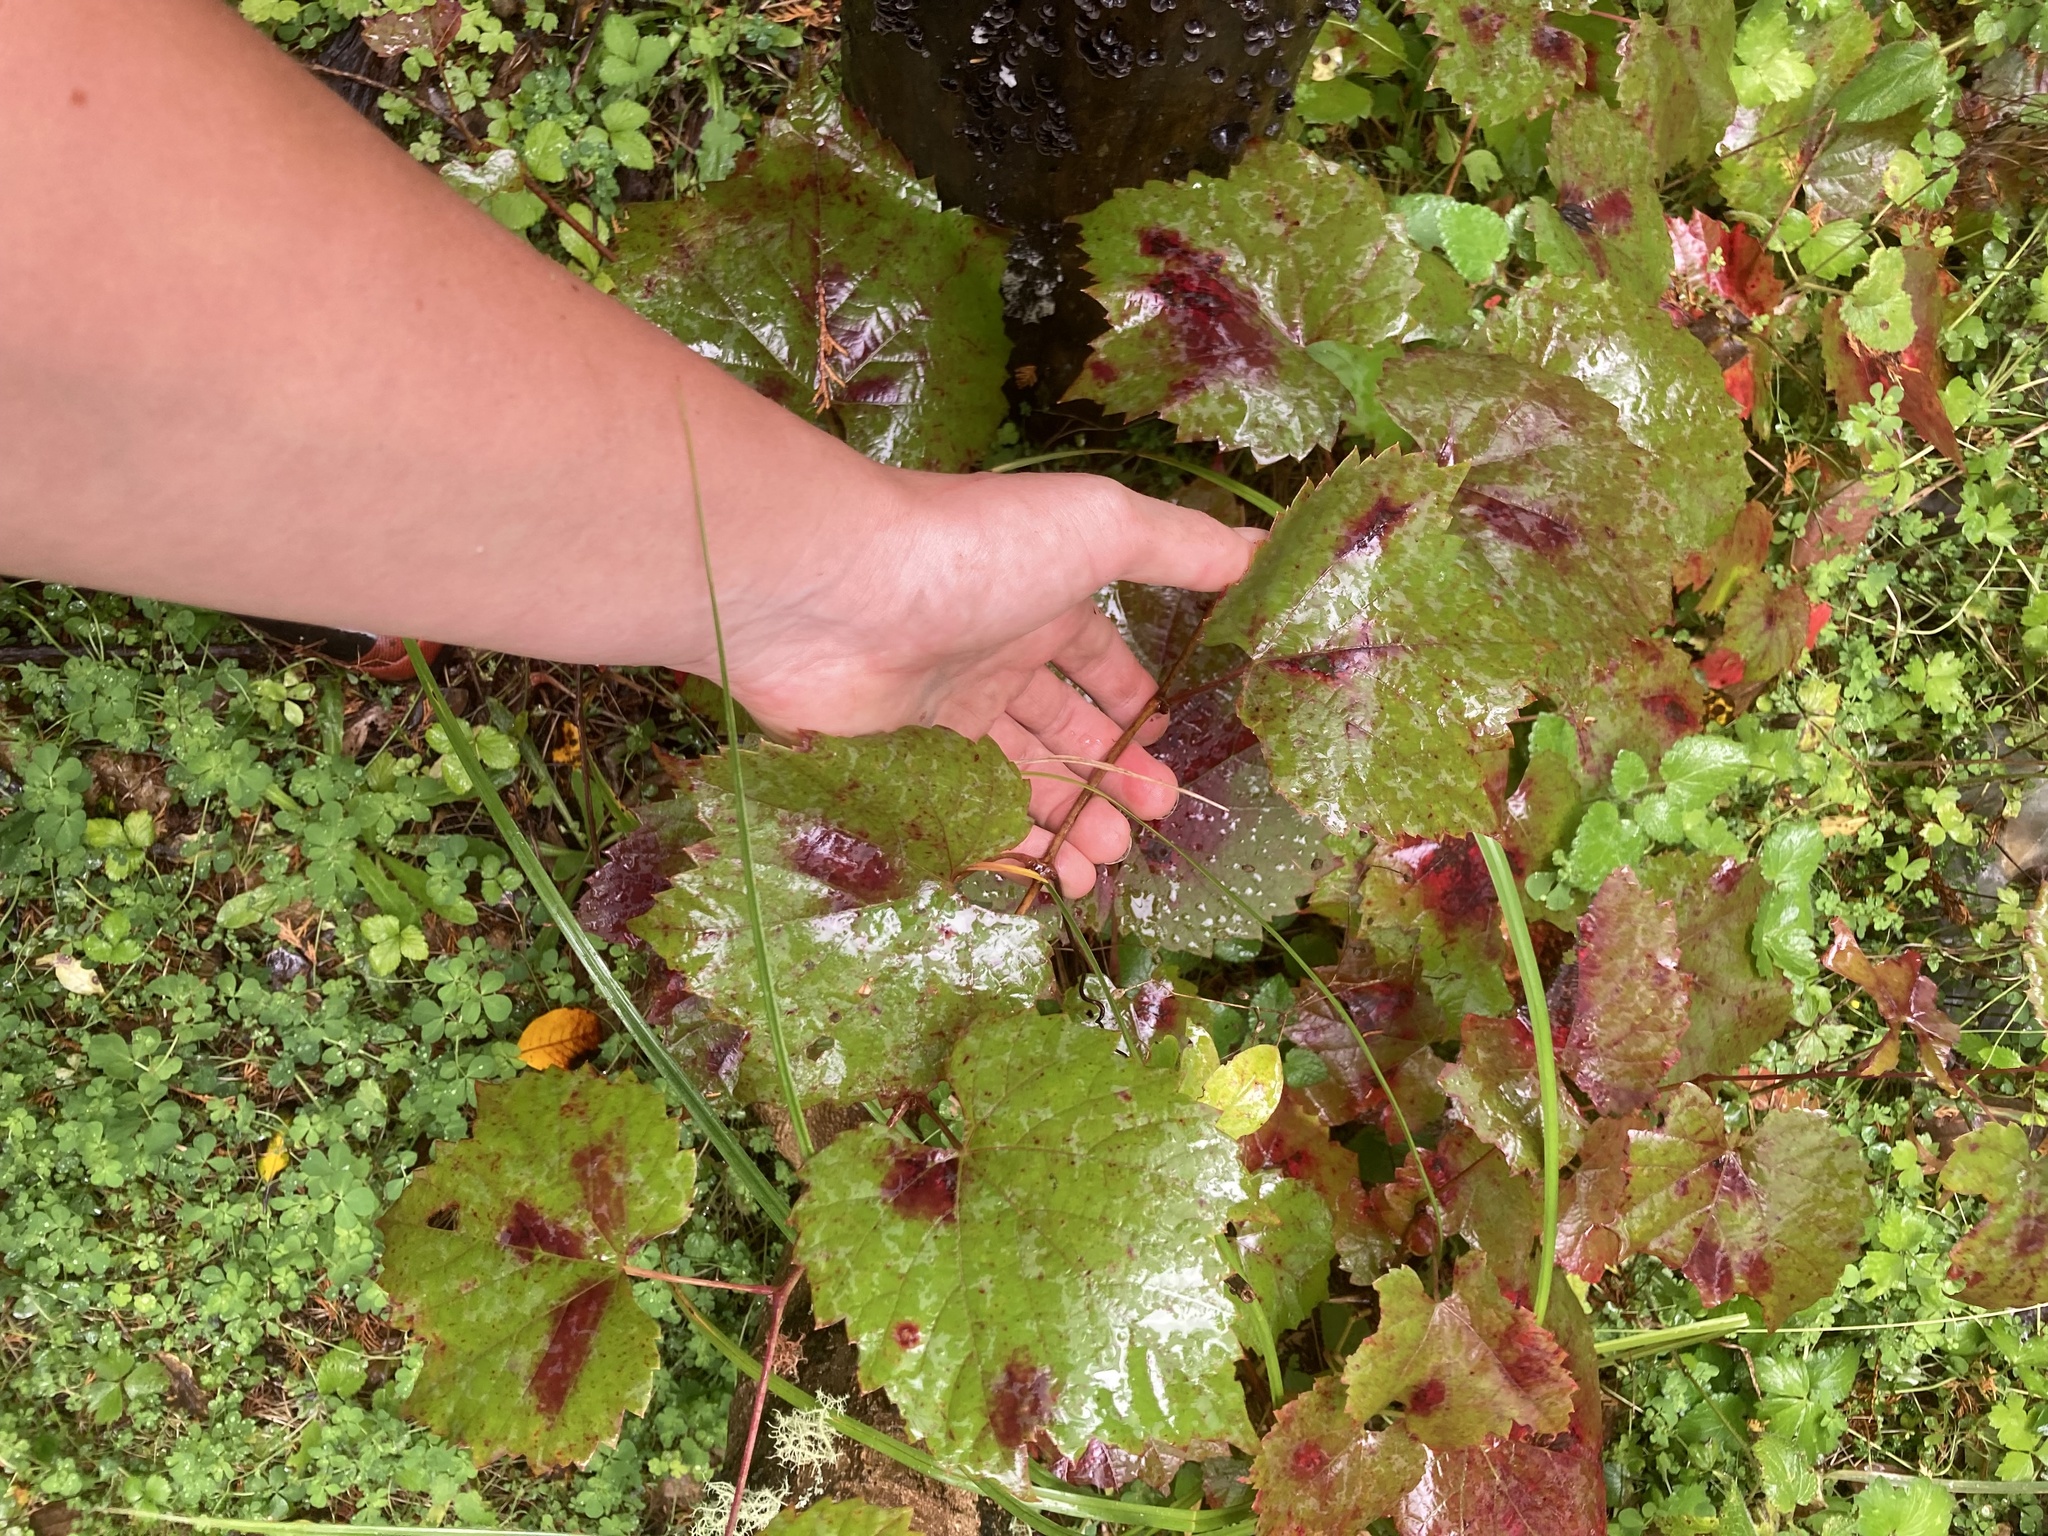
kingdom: Plantae
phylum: Tracheophyta
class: Magnoliopsida
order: Vitales
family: Vitaceae
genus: Vitis
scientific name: Vitis vinifera
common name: Grape-vine
